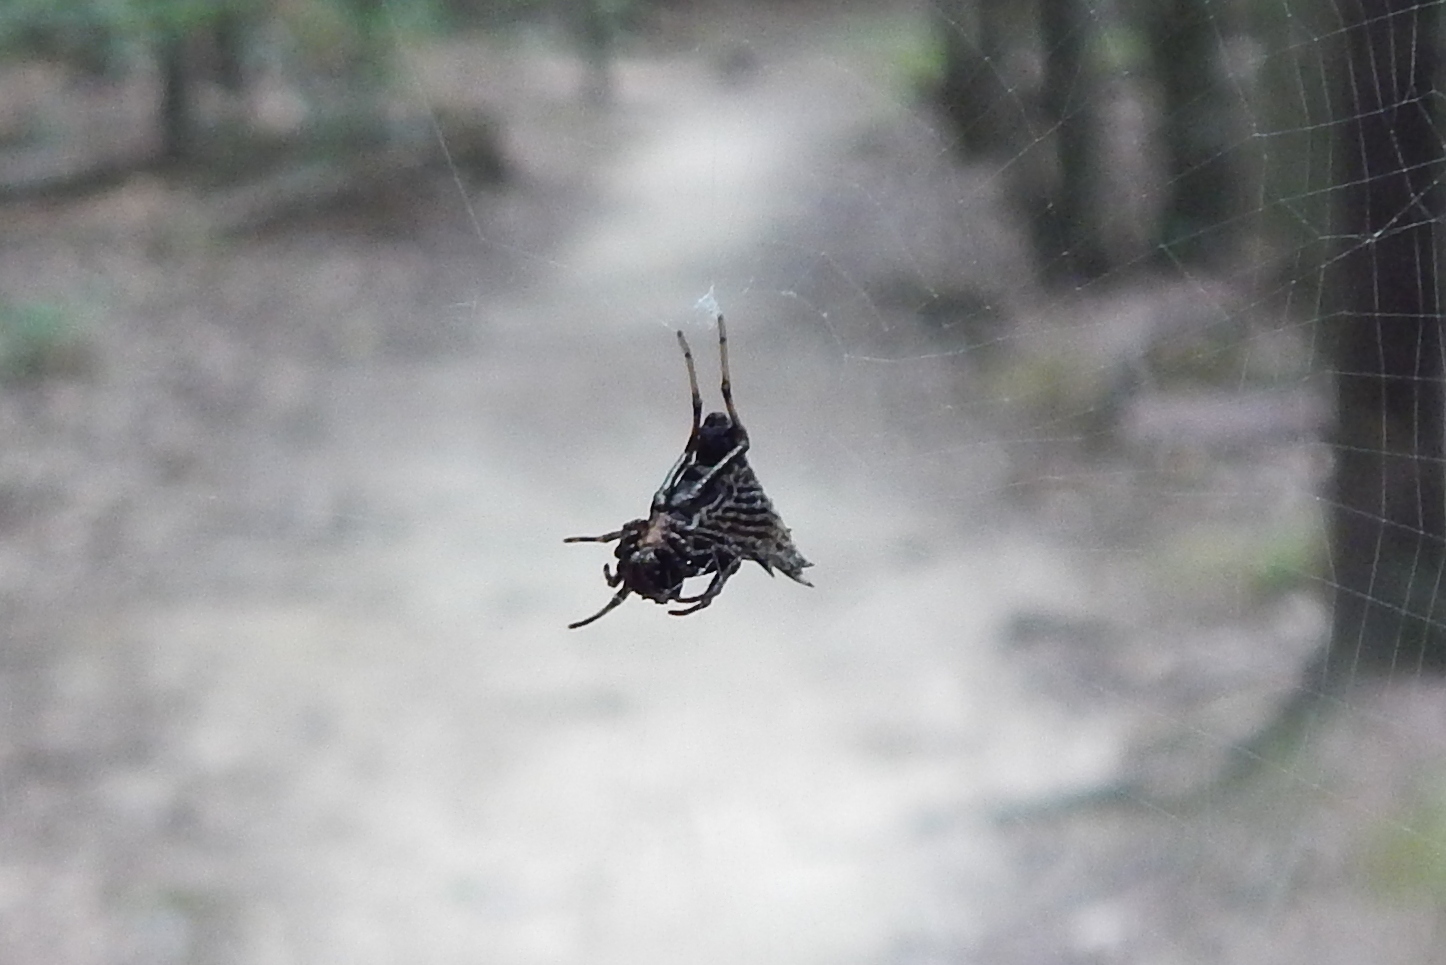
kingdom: Animalia
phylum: Arthropoda
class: Arachnida
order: Araneae
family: Araneidae
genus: Micrathena
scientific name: Micrathena gracilis
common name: Orb weavers
